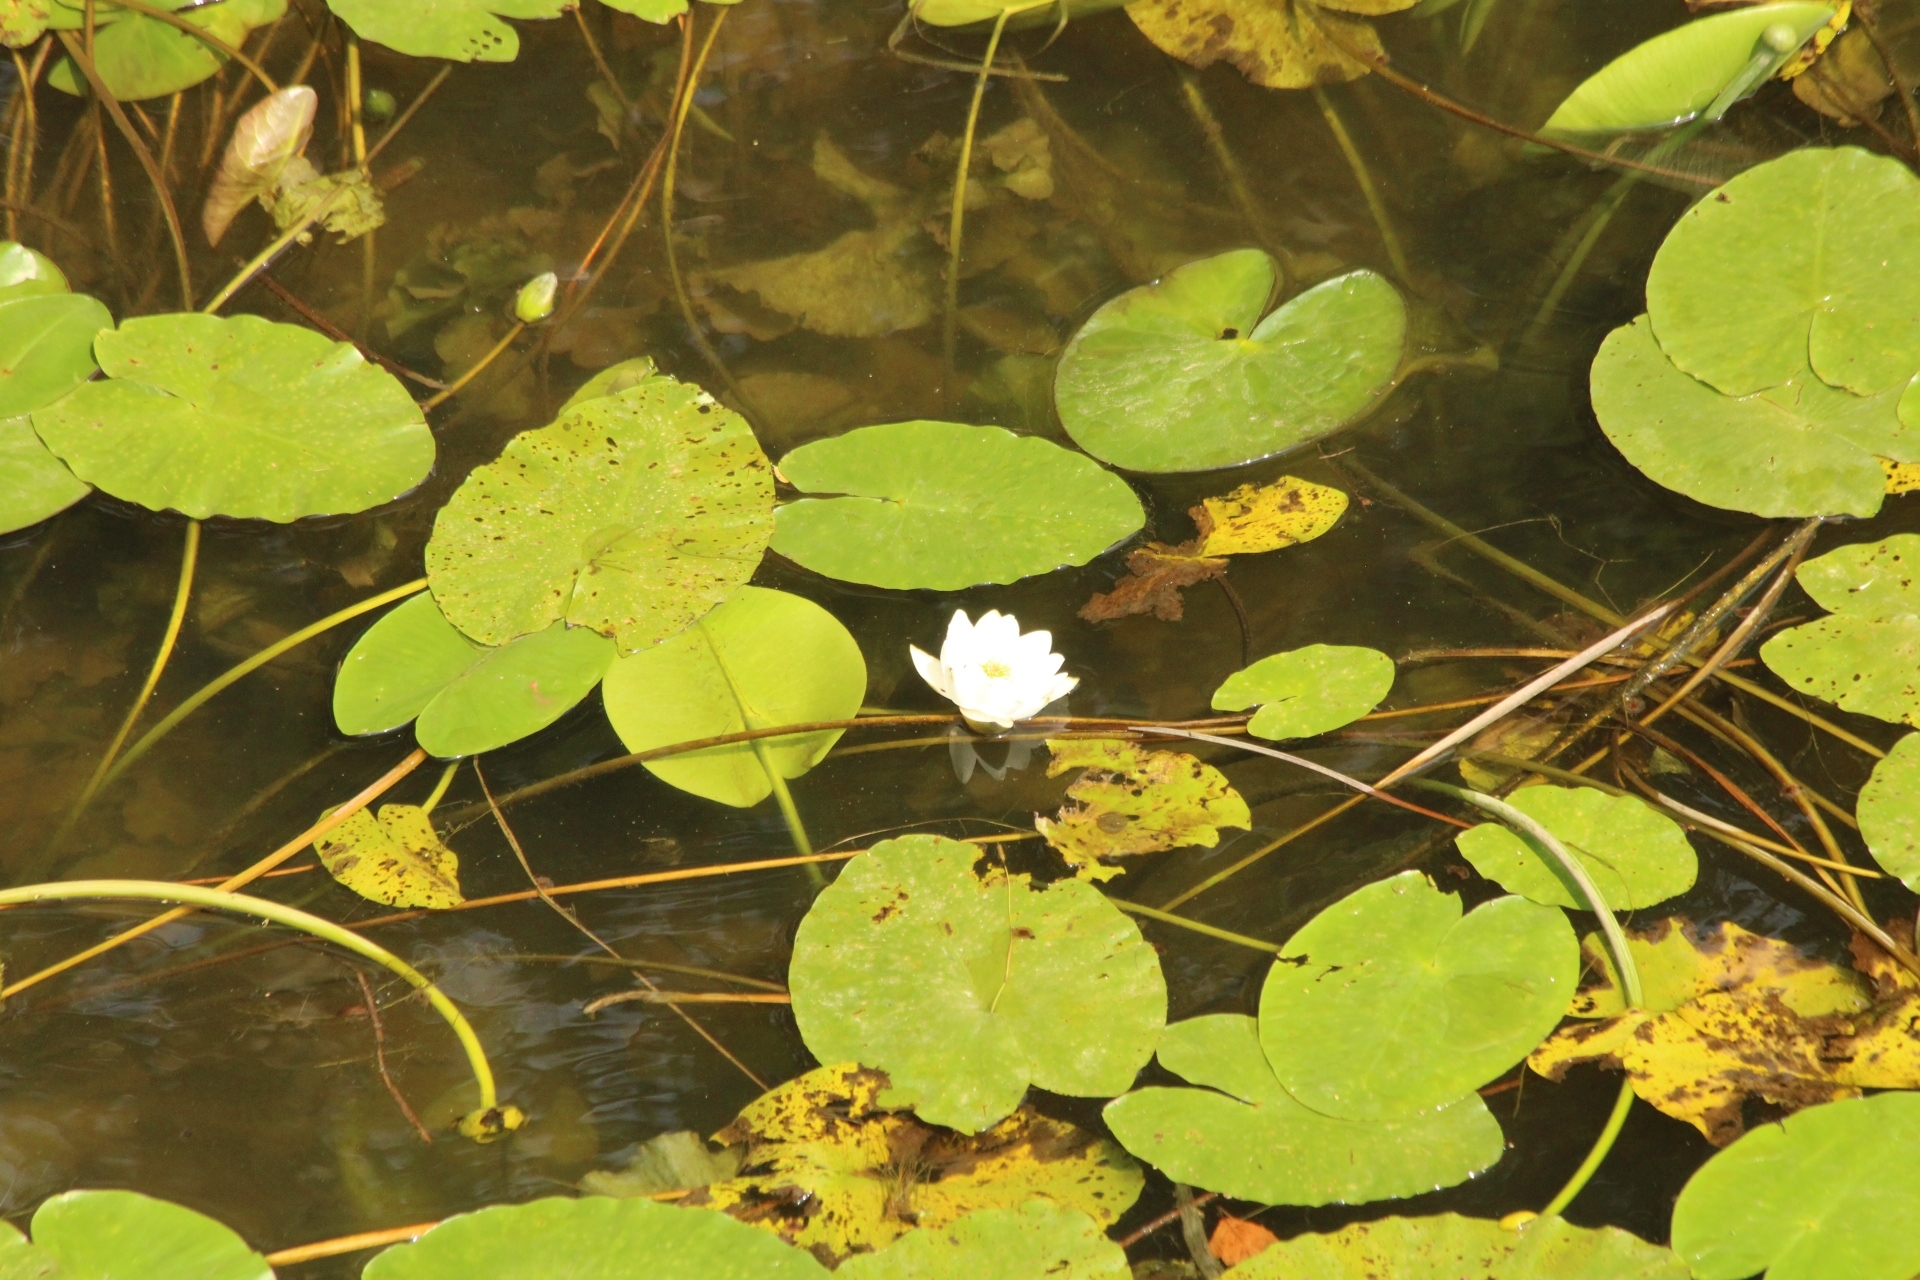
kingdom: Plantae
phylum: Tracheophyta
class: Magnoliopsida
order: Nymphaeales
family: Nymphaeaceae
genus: Nymphaea
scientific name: Nymphaea candida
